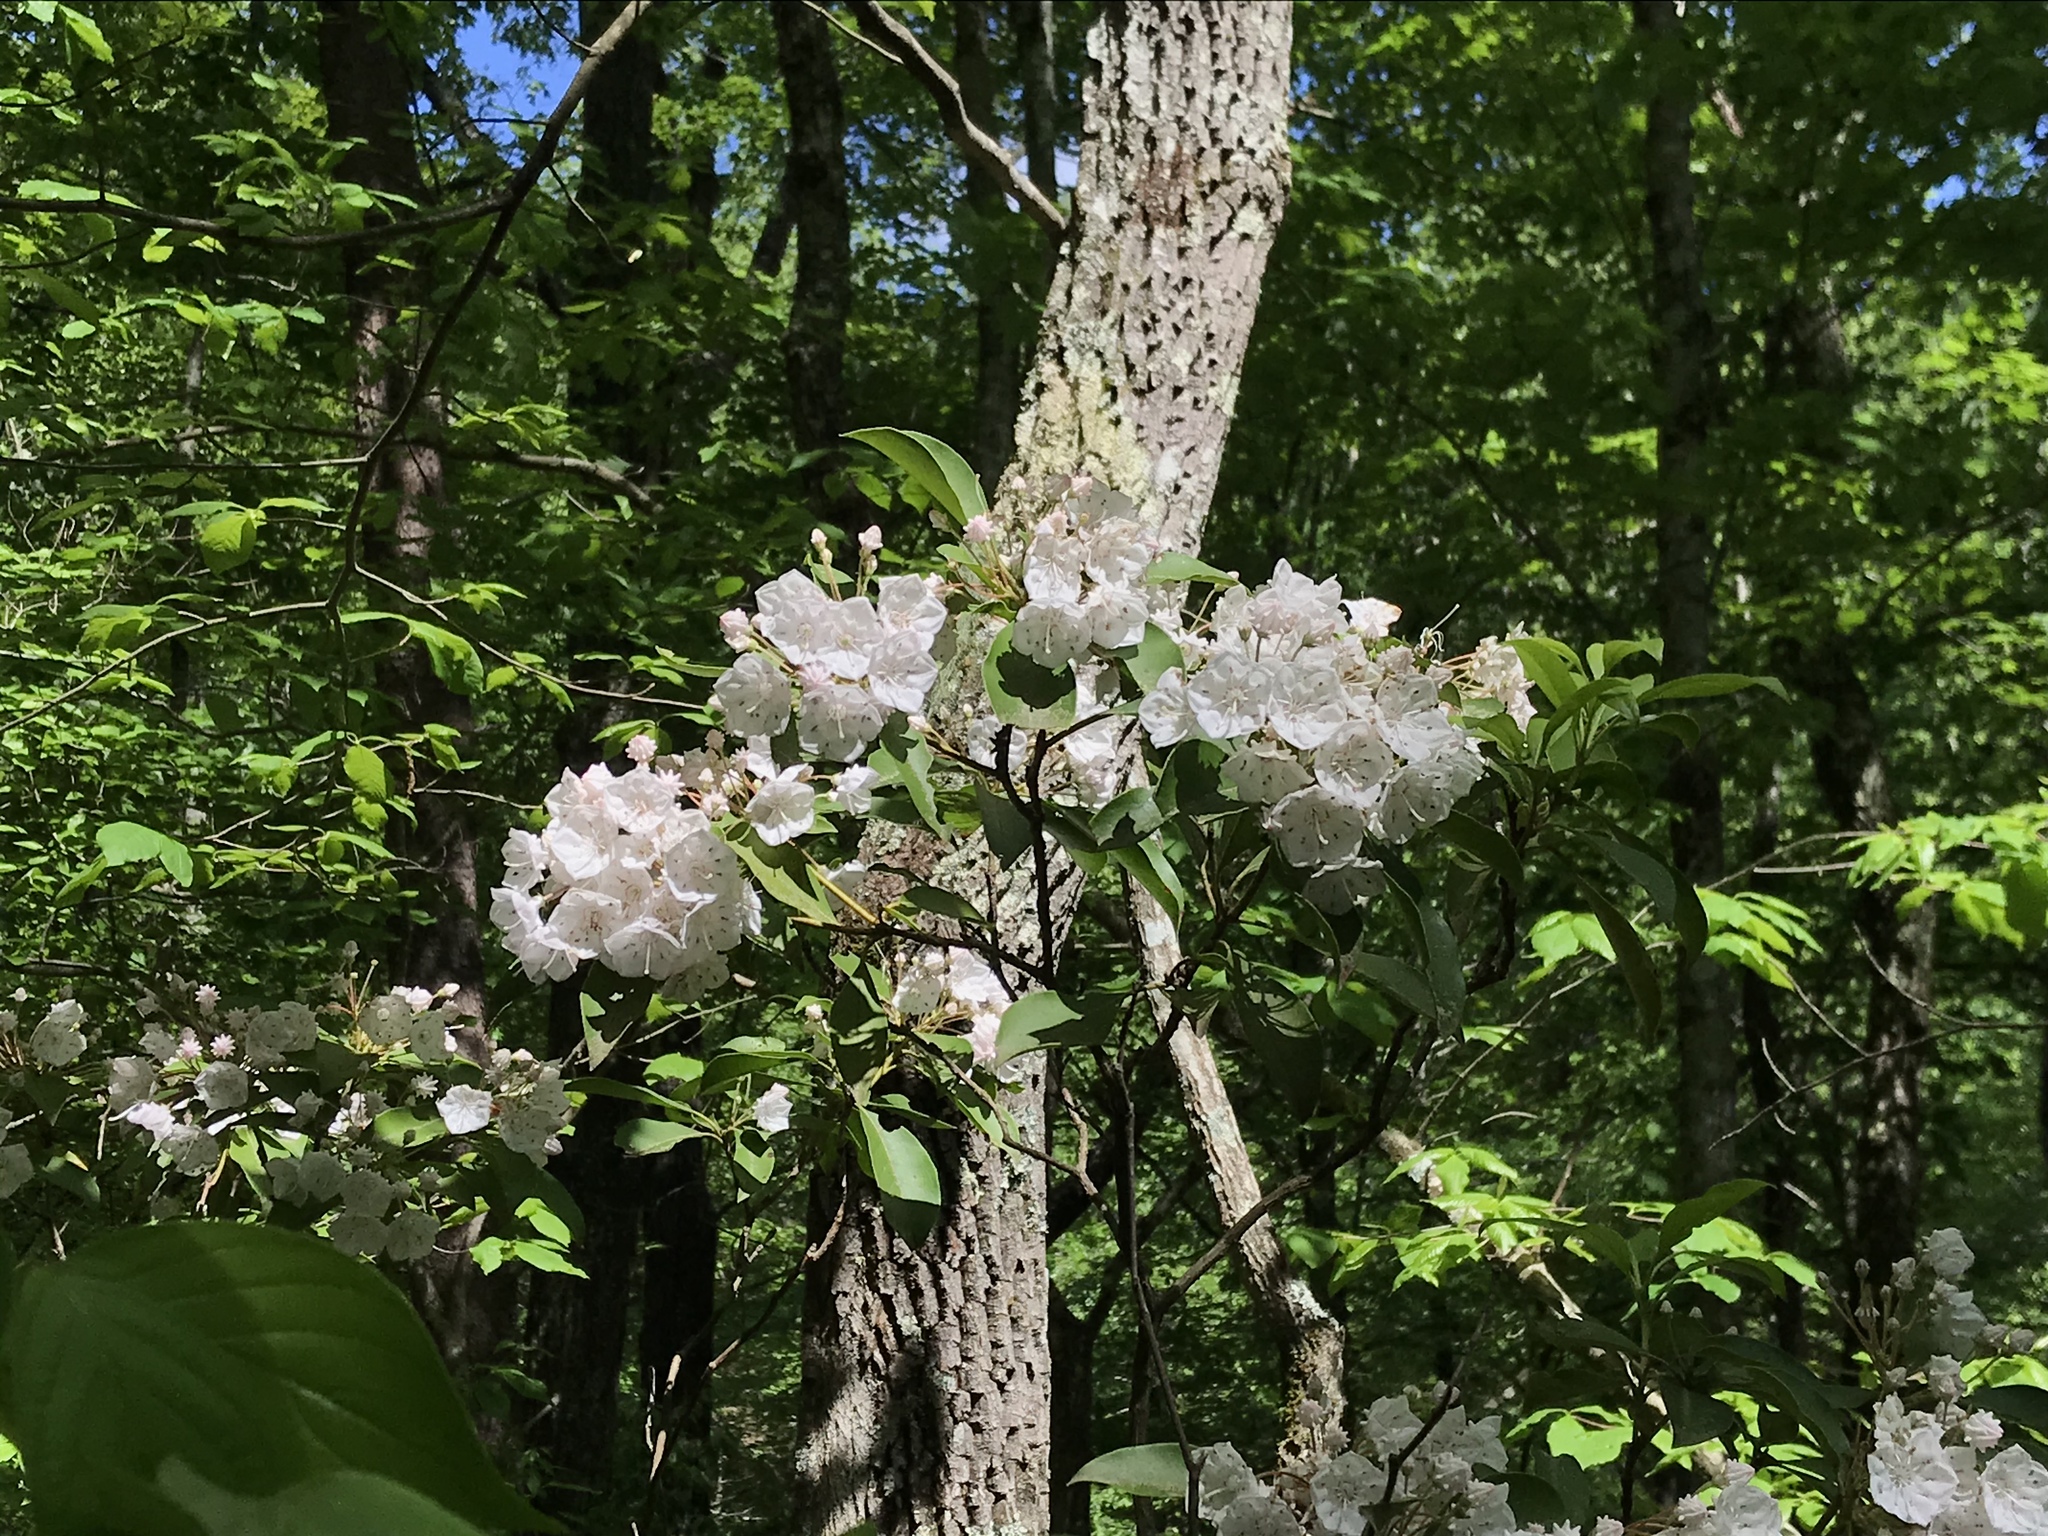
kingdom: Plantae
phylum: Tracheophyta
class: Magnoliopsida
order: Ericales
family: Ericaceae
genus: Kalmia
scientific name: Kalmia latifolia
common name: Mountain-laurel
